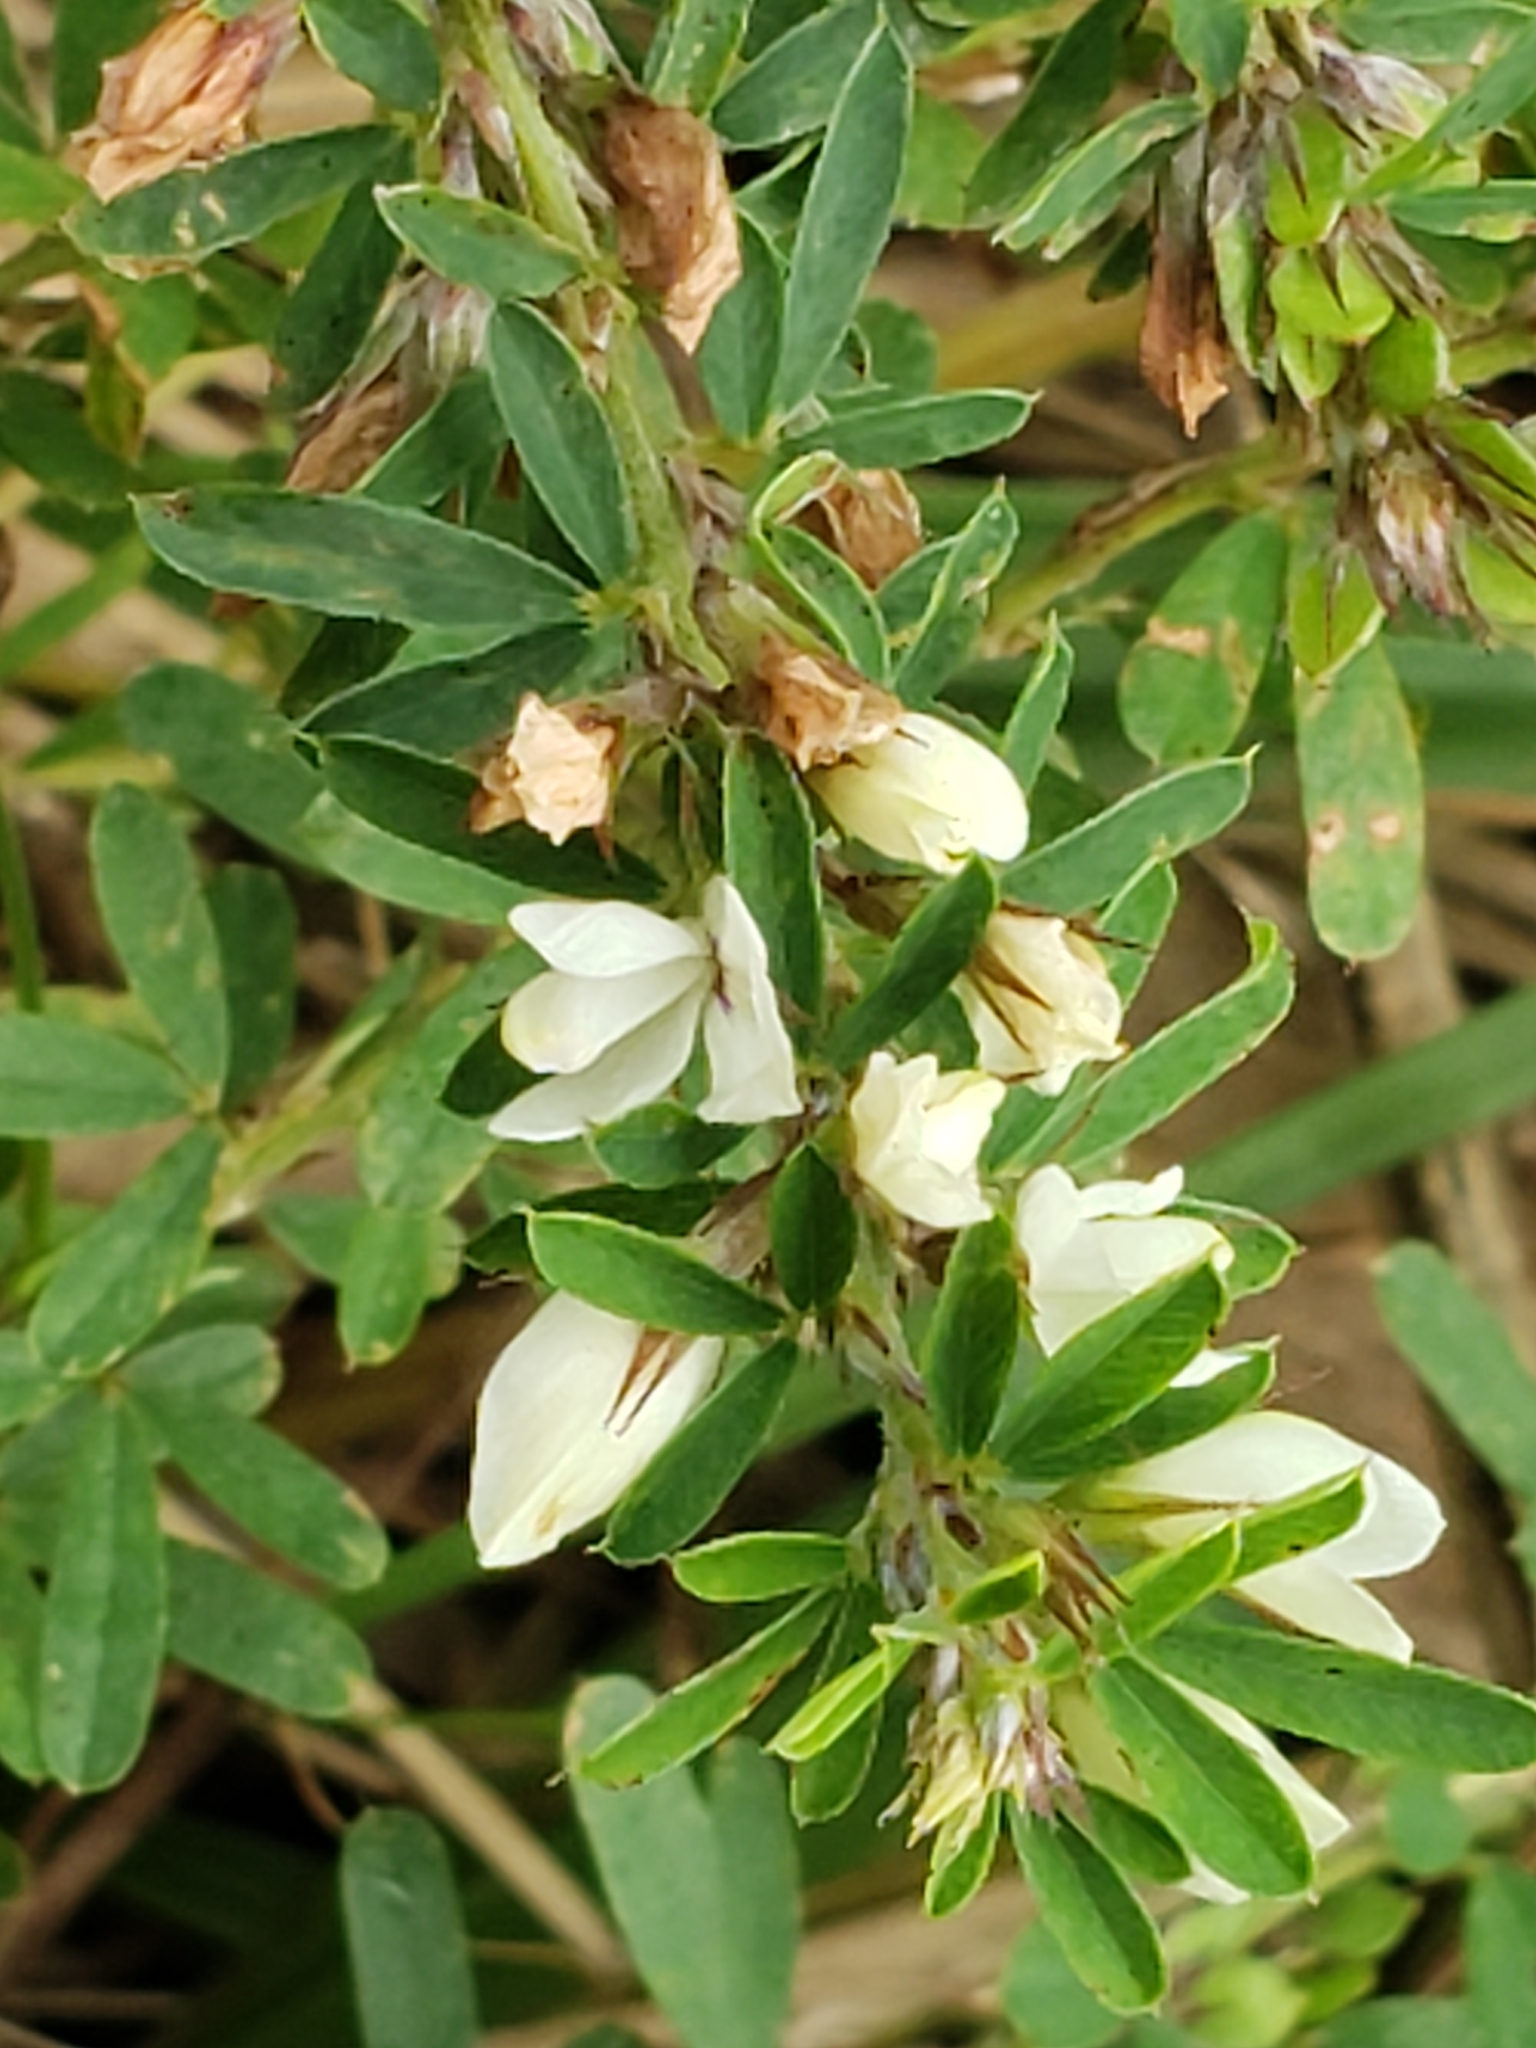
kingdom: Plantae
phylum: Tracheophyta
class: Magnoliopsida
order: Fabales
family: Fabaceae
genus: Lespedeza
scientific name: Lespedeza cuneata
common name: Chinese bush-clover
